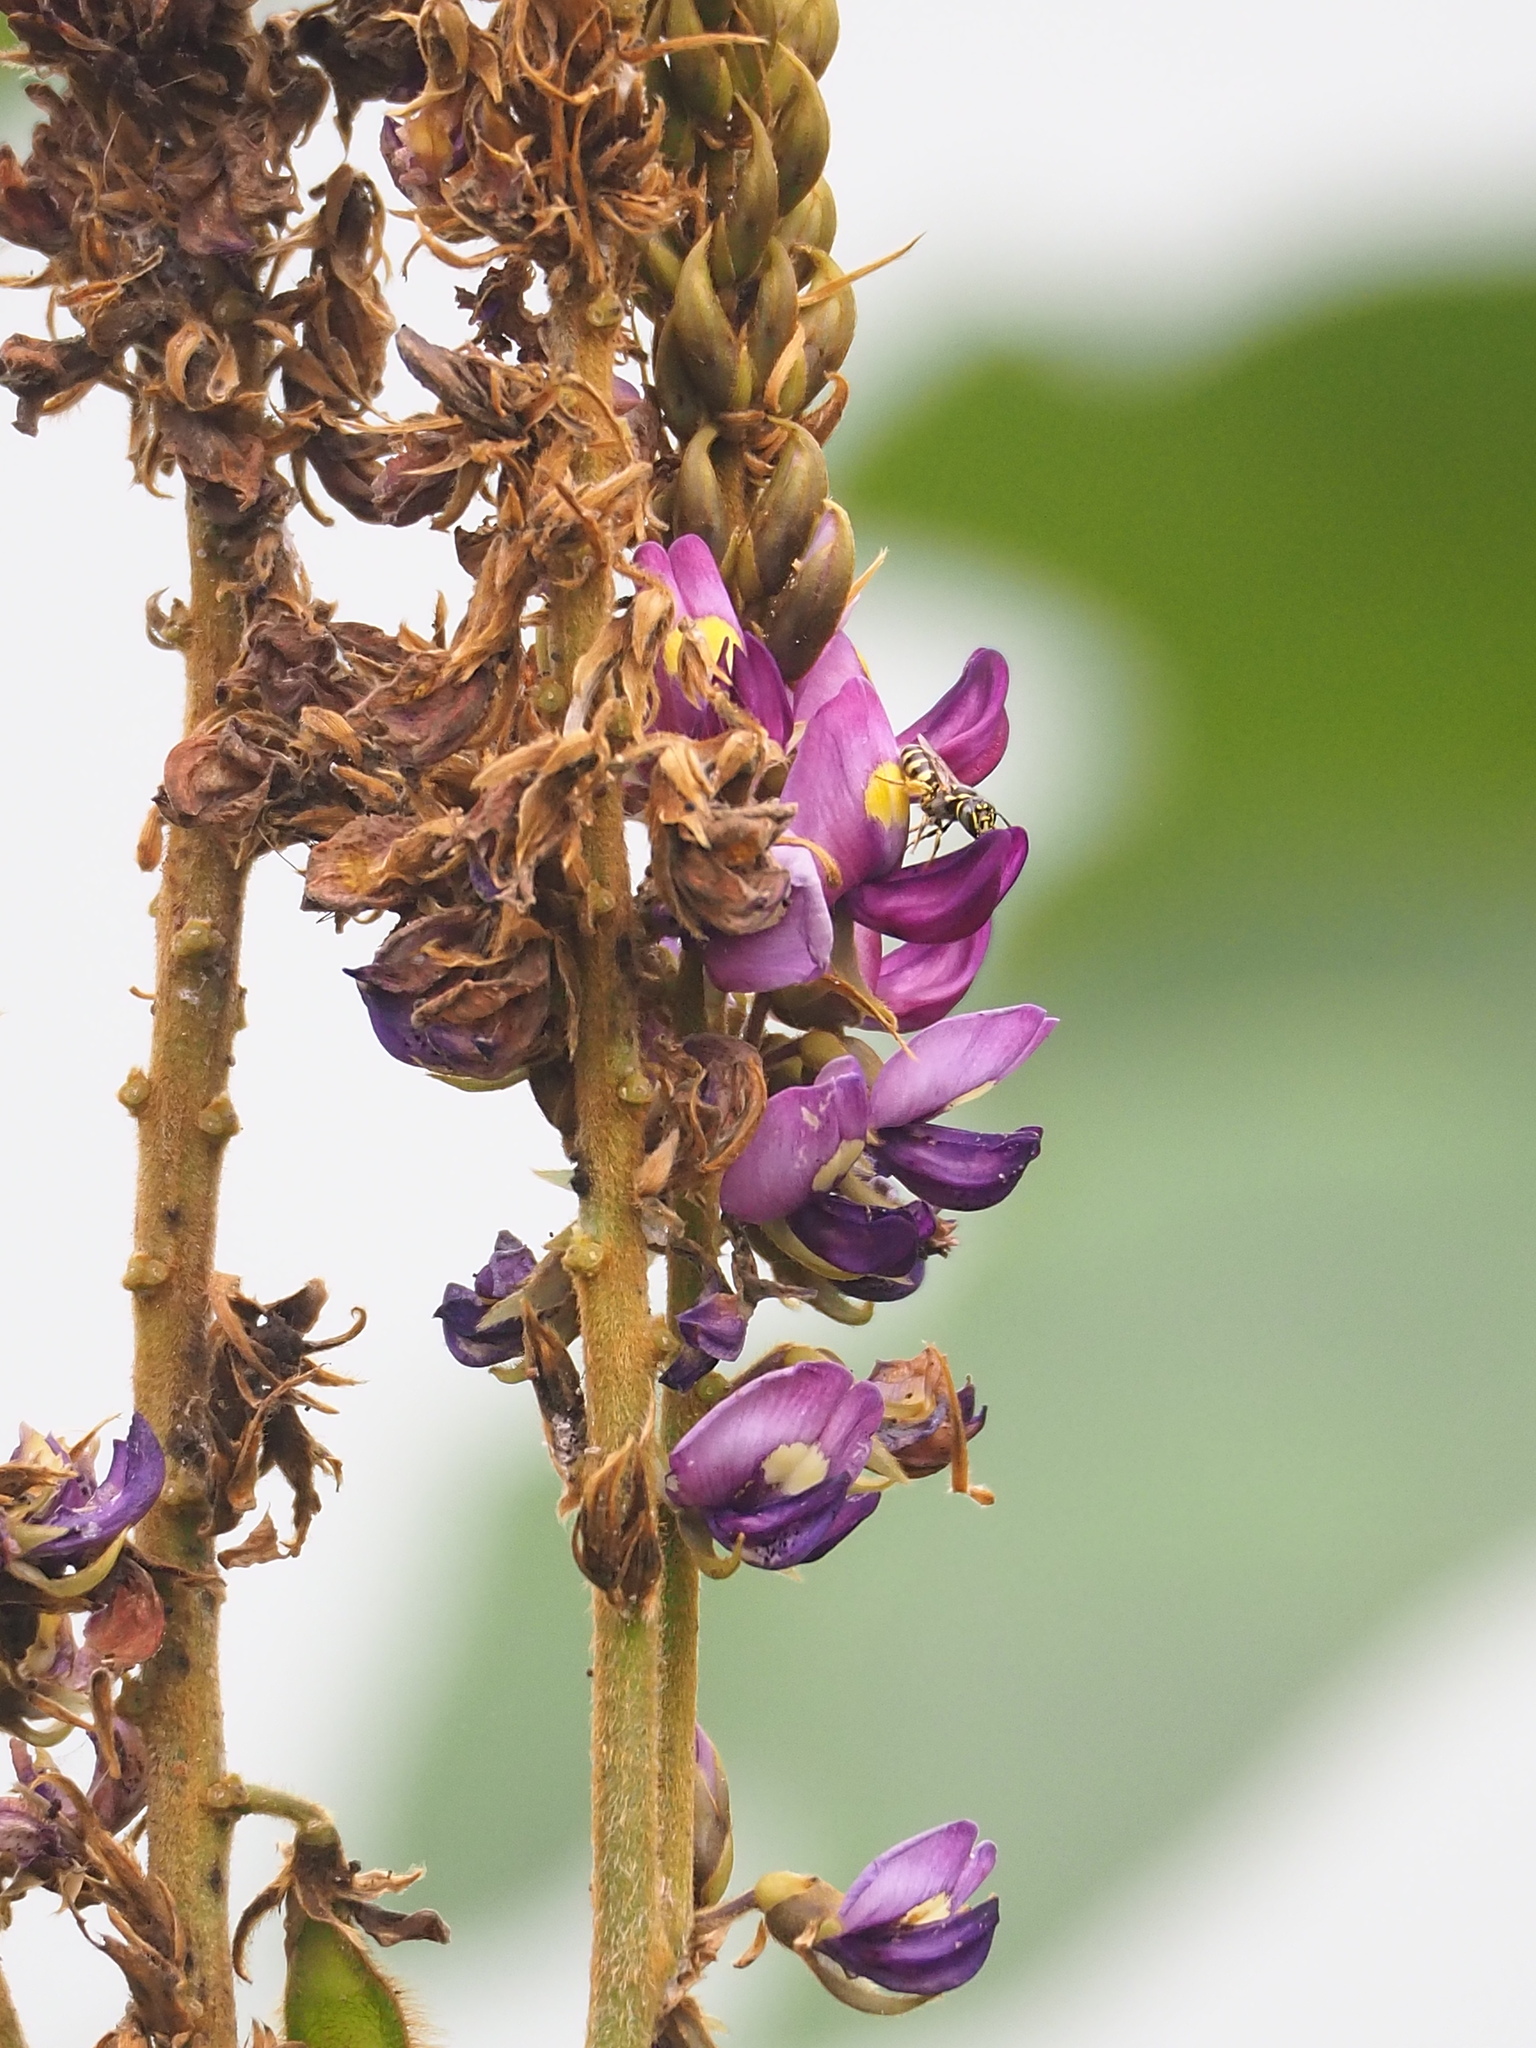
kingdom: Plantae
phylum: Tracheophyta
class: Magnoliopsida
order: Fabales
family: Fabaceae
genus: Pueraria
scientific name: Pueraria montana
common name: Kudzu
